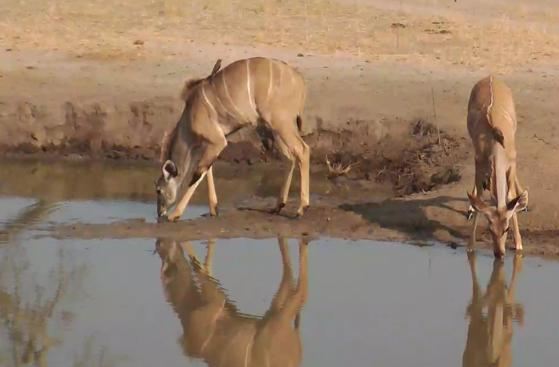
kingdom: Animalia
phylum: Chordata
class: Mammalia
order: Artiodactyla
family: Bovidae
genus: Tragelaphus
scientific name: Tragelaphus strepsiceros
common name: Greater kudu
